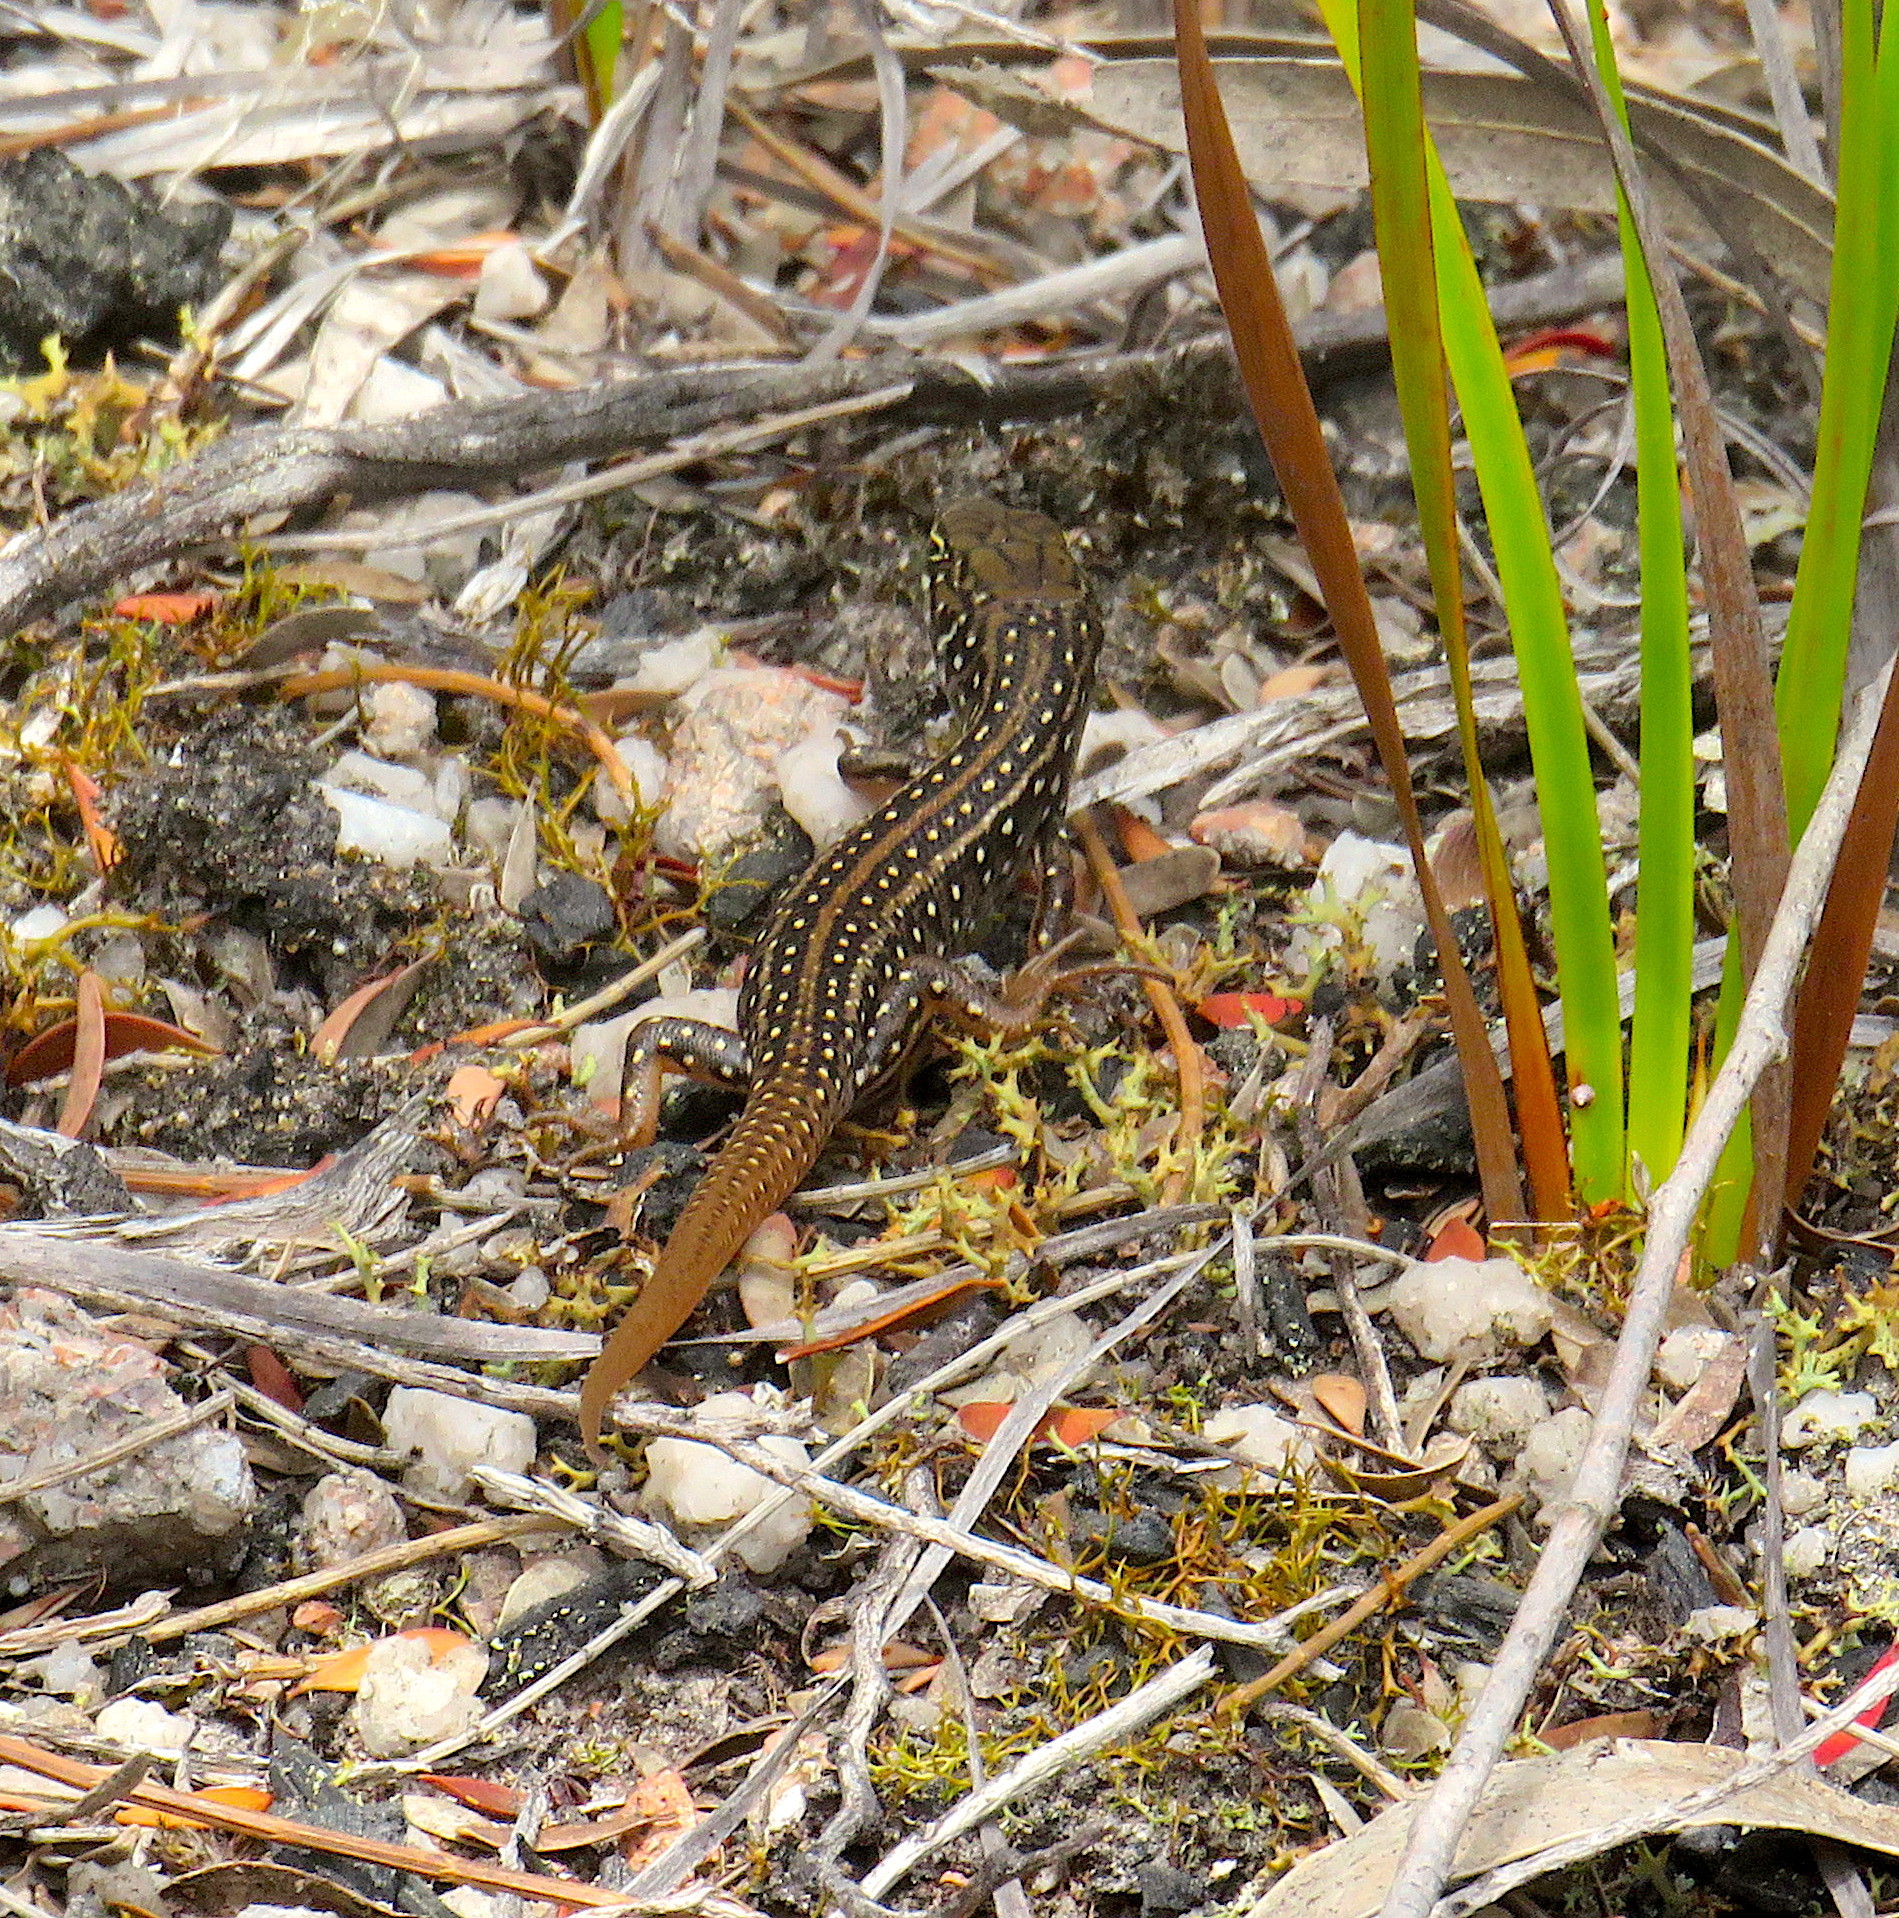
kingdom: Animalia
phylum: Chordata
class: Squamata
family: Scincidae
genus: Liopholis
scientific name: Liopholis whitii
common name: White's rock-skink
